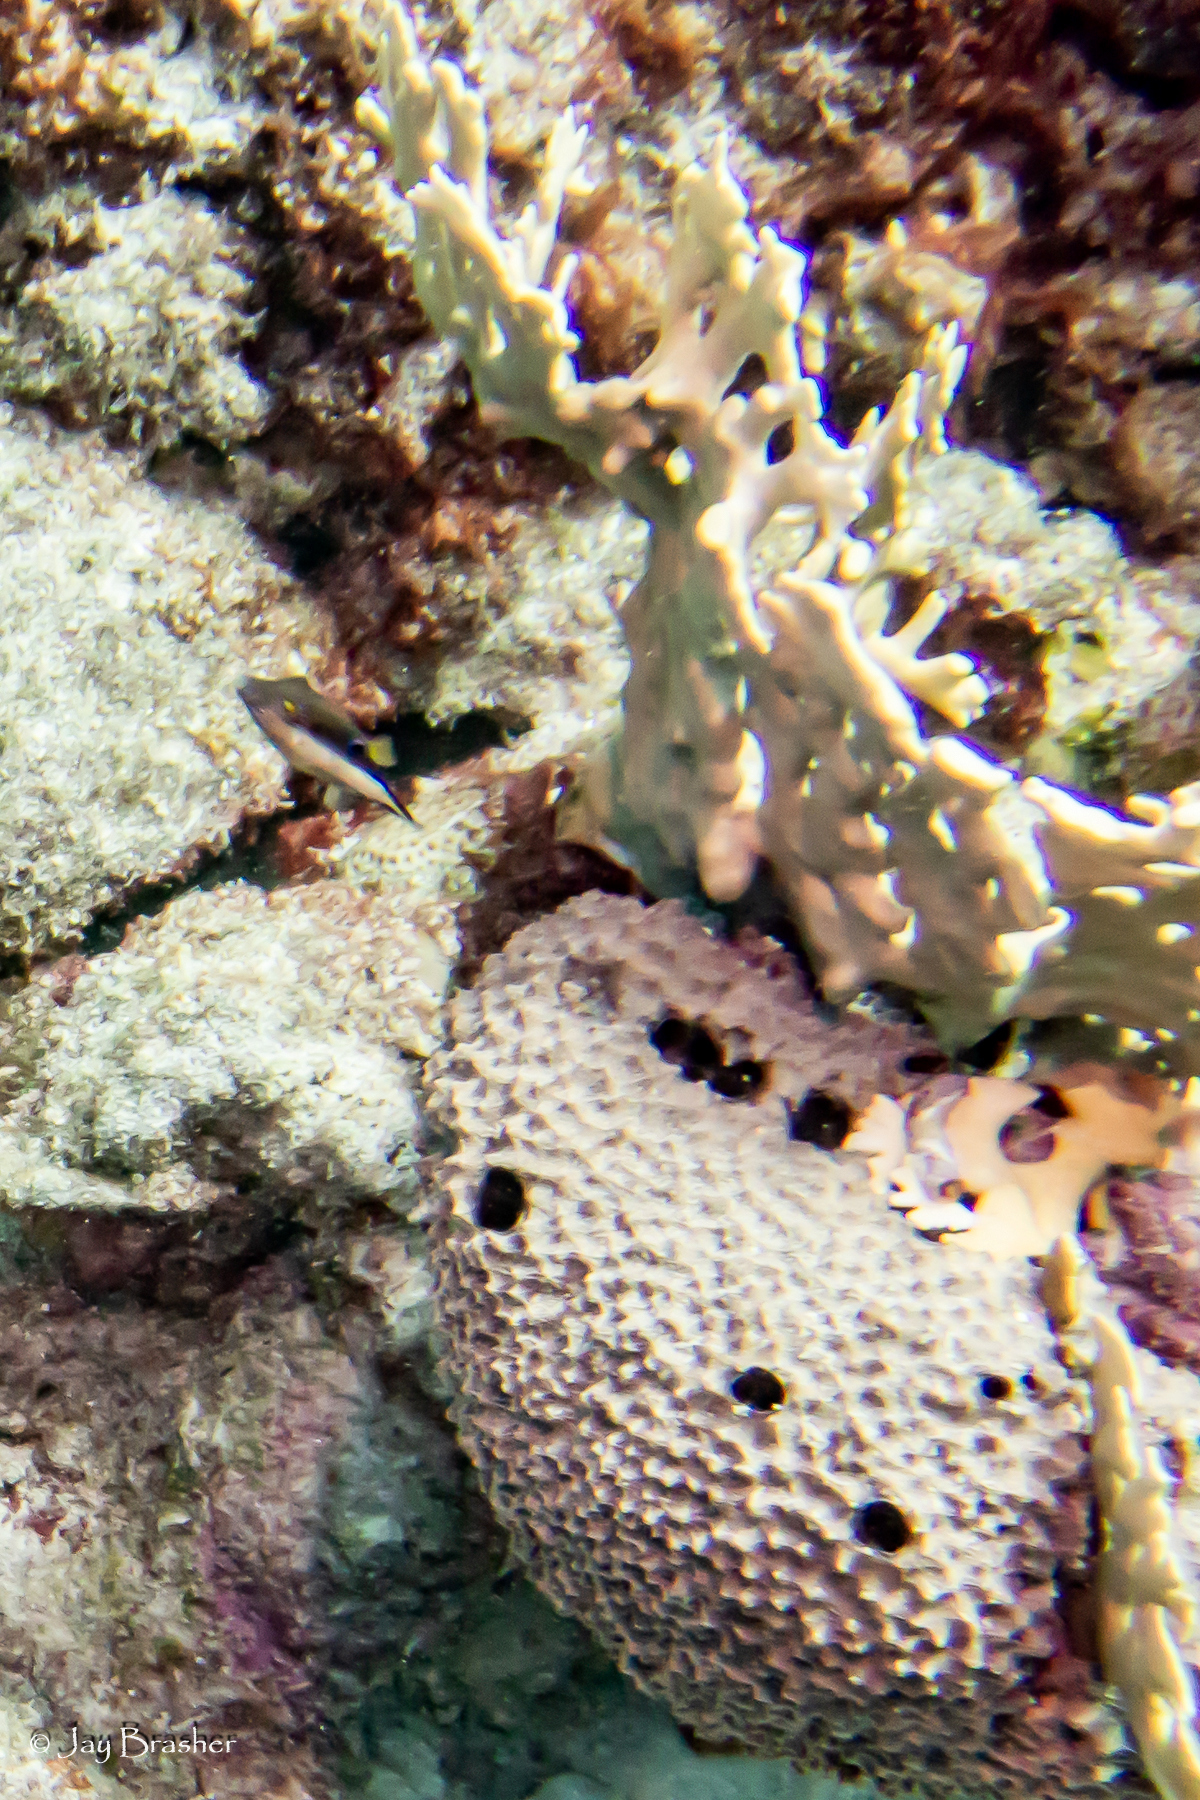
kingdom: Animalia
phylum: Chordata
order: Tetraodontiformes
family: Tetraodontidae
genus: Canthigaster
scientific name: Canthigaster rostrata
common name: Caribbean sharpnose-puffer
